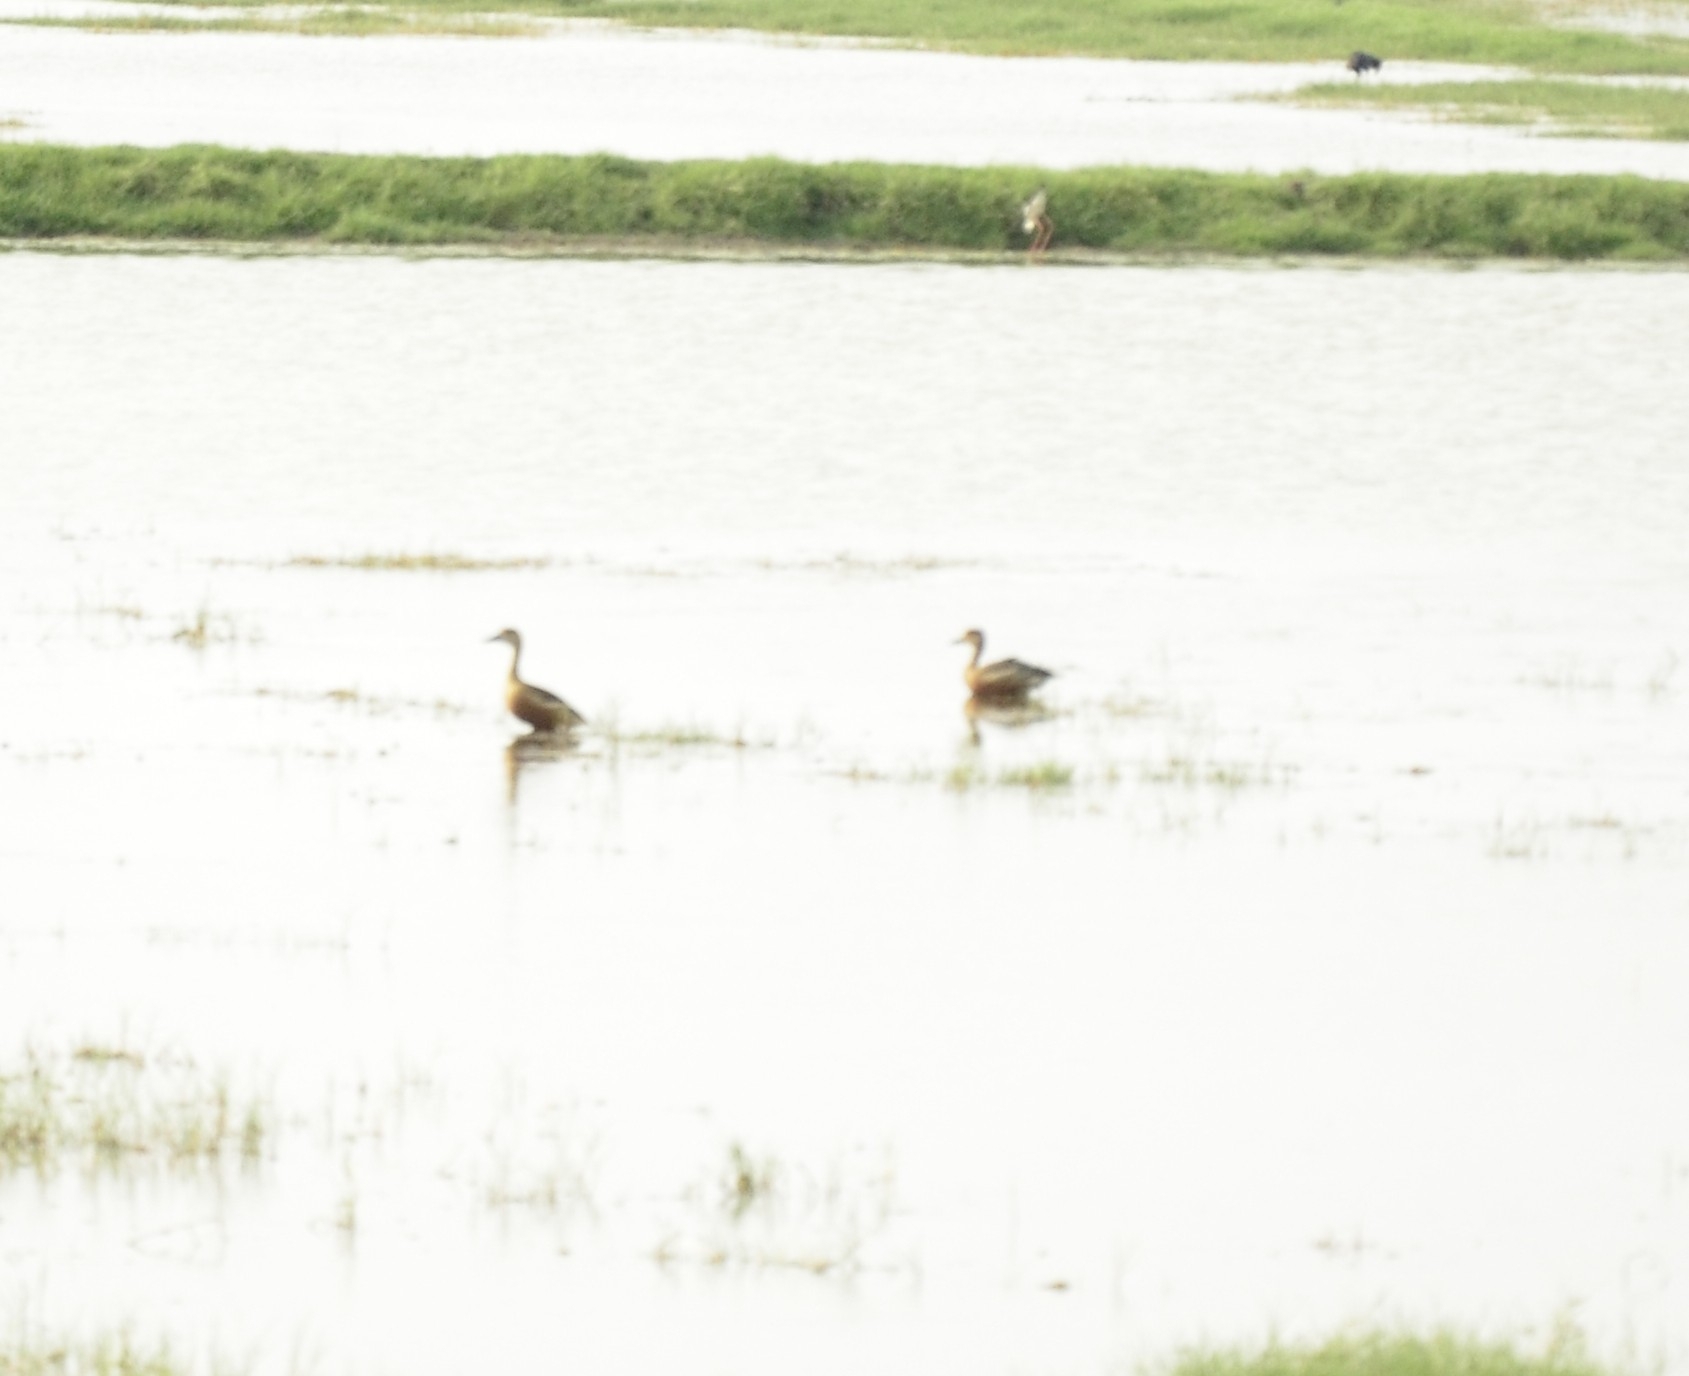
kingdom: Animalia
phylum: Chordata
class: Aves
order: Anseriformes
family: Anatidae
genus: Dendrocygna
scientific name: Dendrocygna javanica
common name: Lesser whistling-duck
